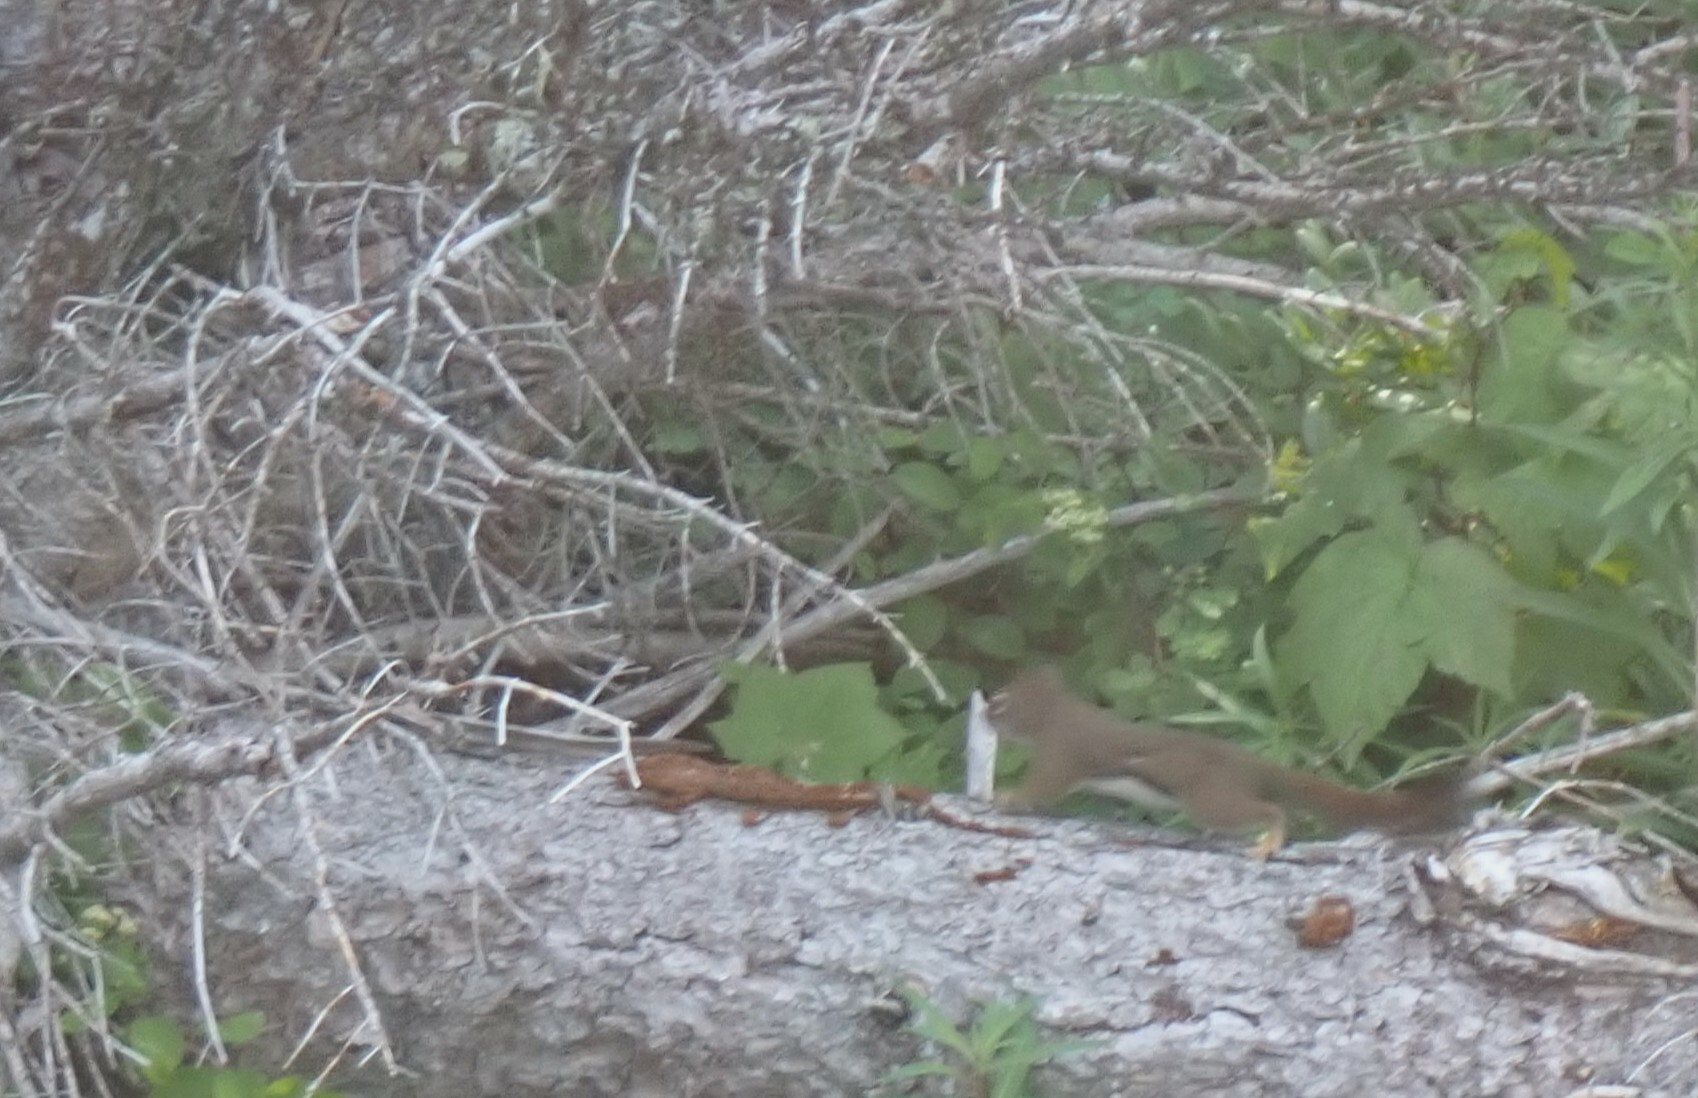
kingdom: Animalia
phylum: Chordata
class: Mammalia
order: Rodentia
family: Sciuridae
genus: Tamiasciurus
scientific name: Tamiasciurus hudsonicus
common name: Red squirrel
